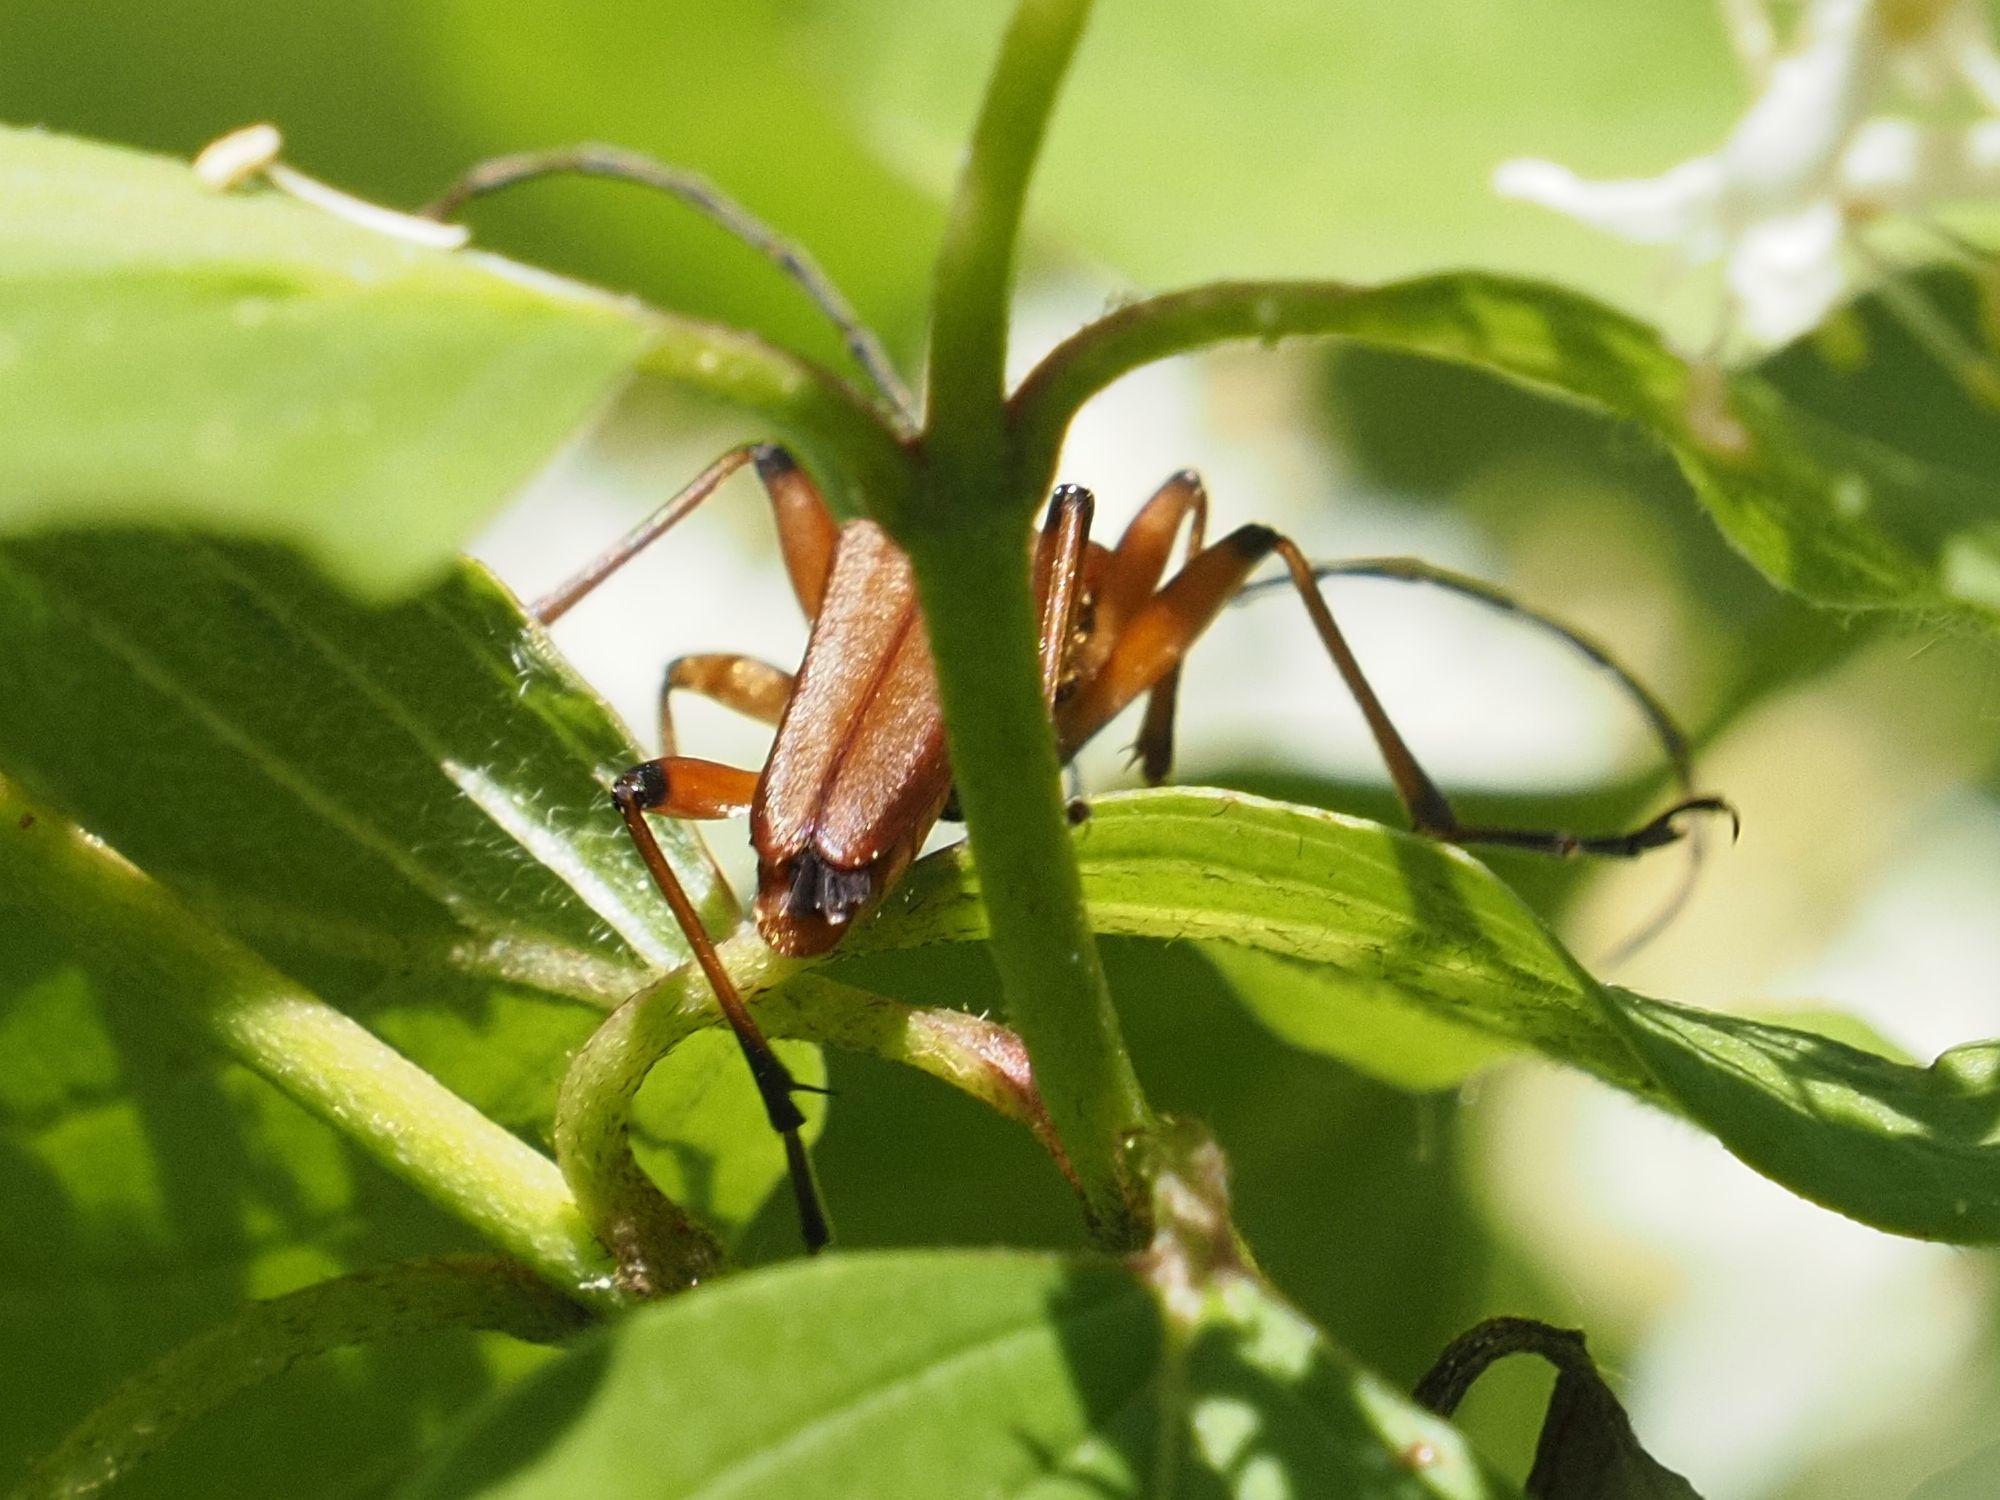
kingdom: Animalia
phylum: Arthropoda
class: Insecta
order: Coleoptera
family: Cerambycidae
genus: Stenocorus
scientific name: Stenocorus meridianus
